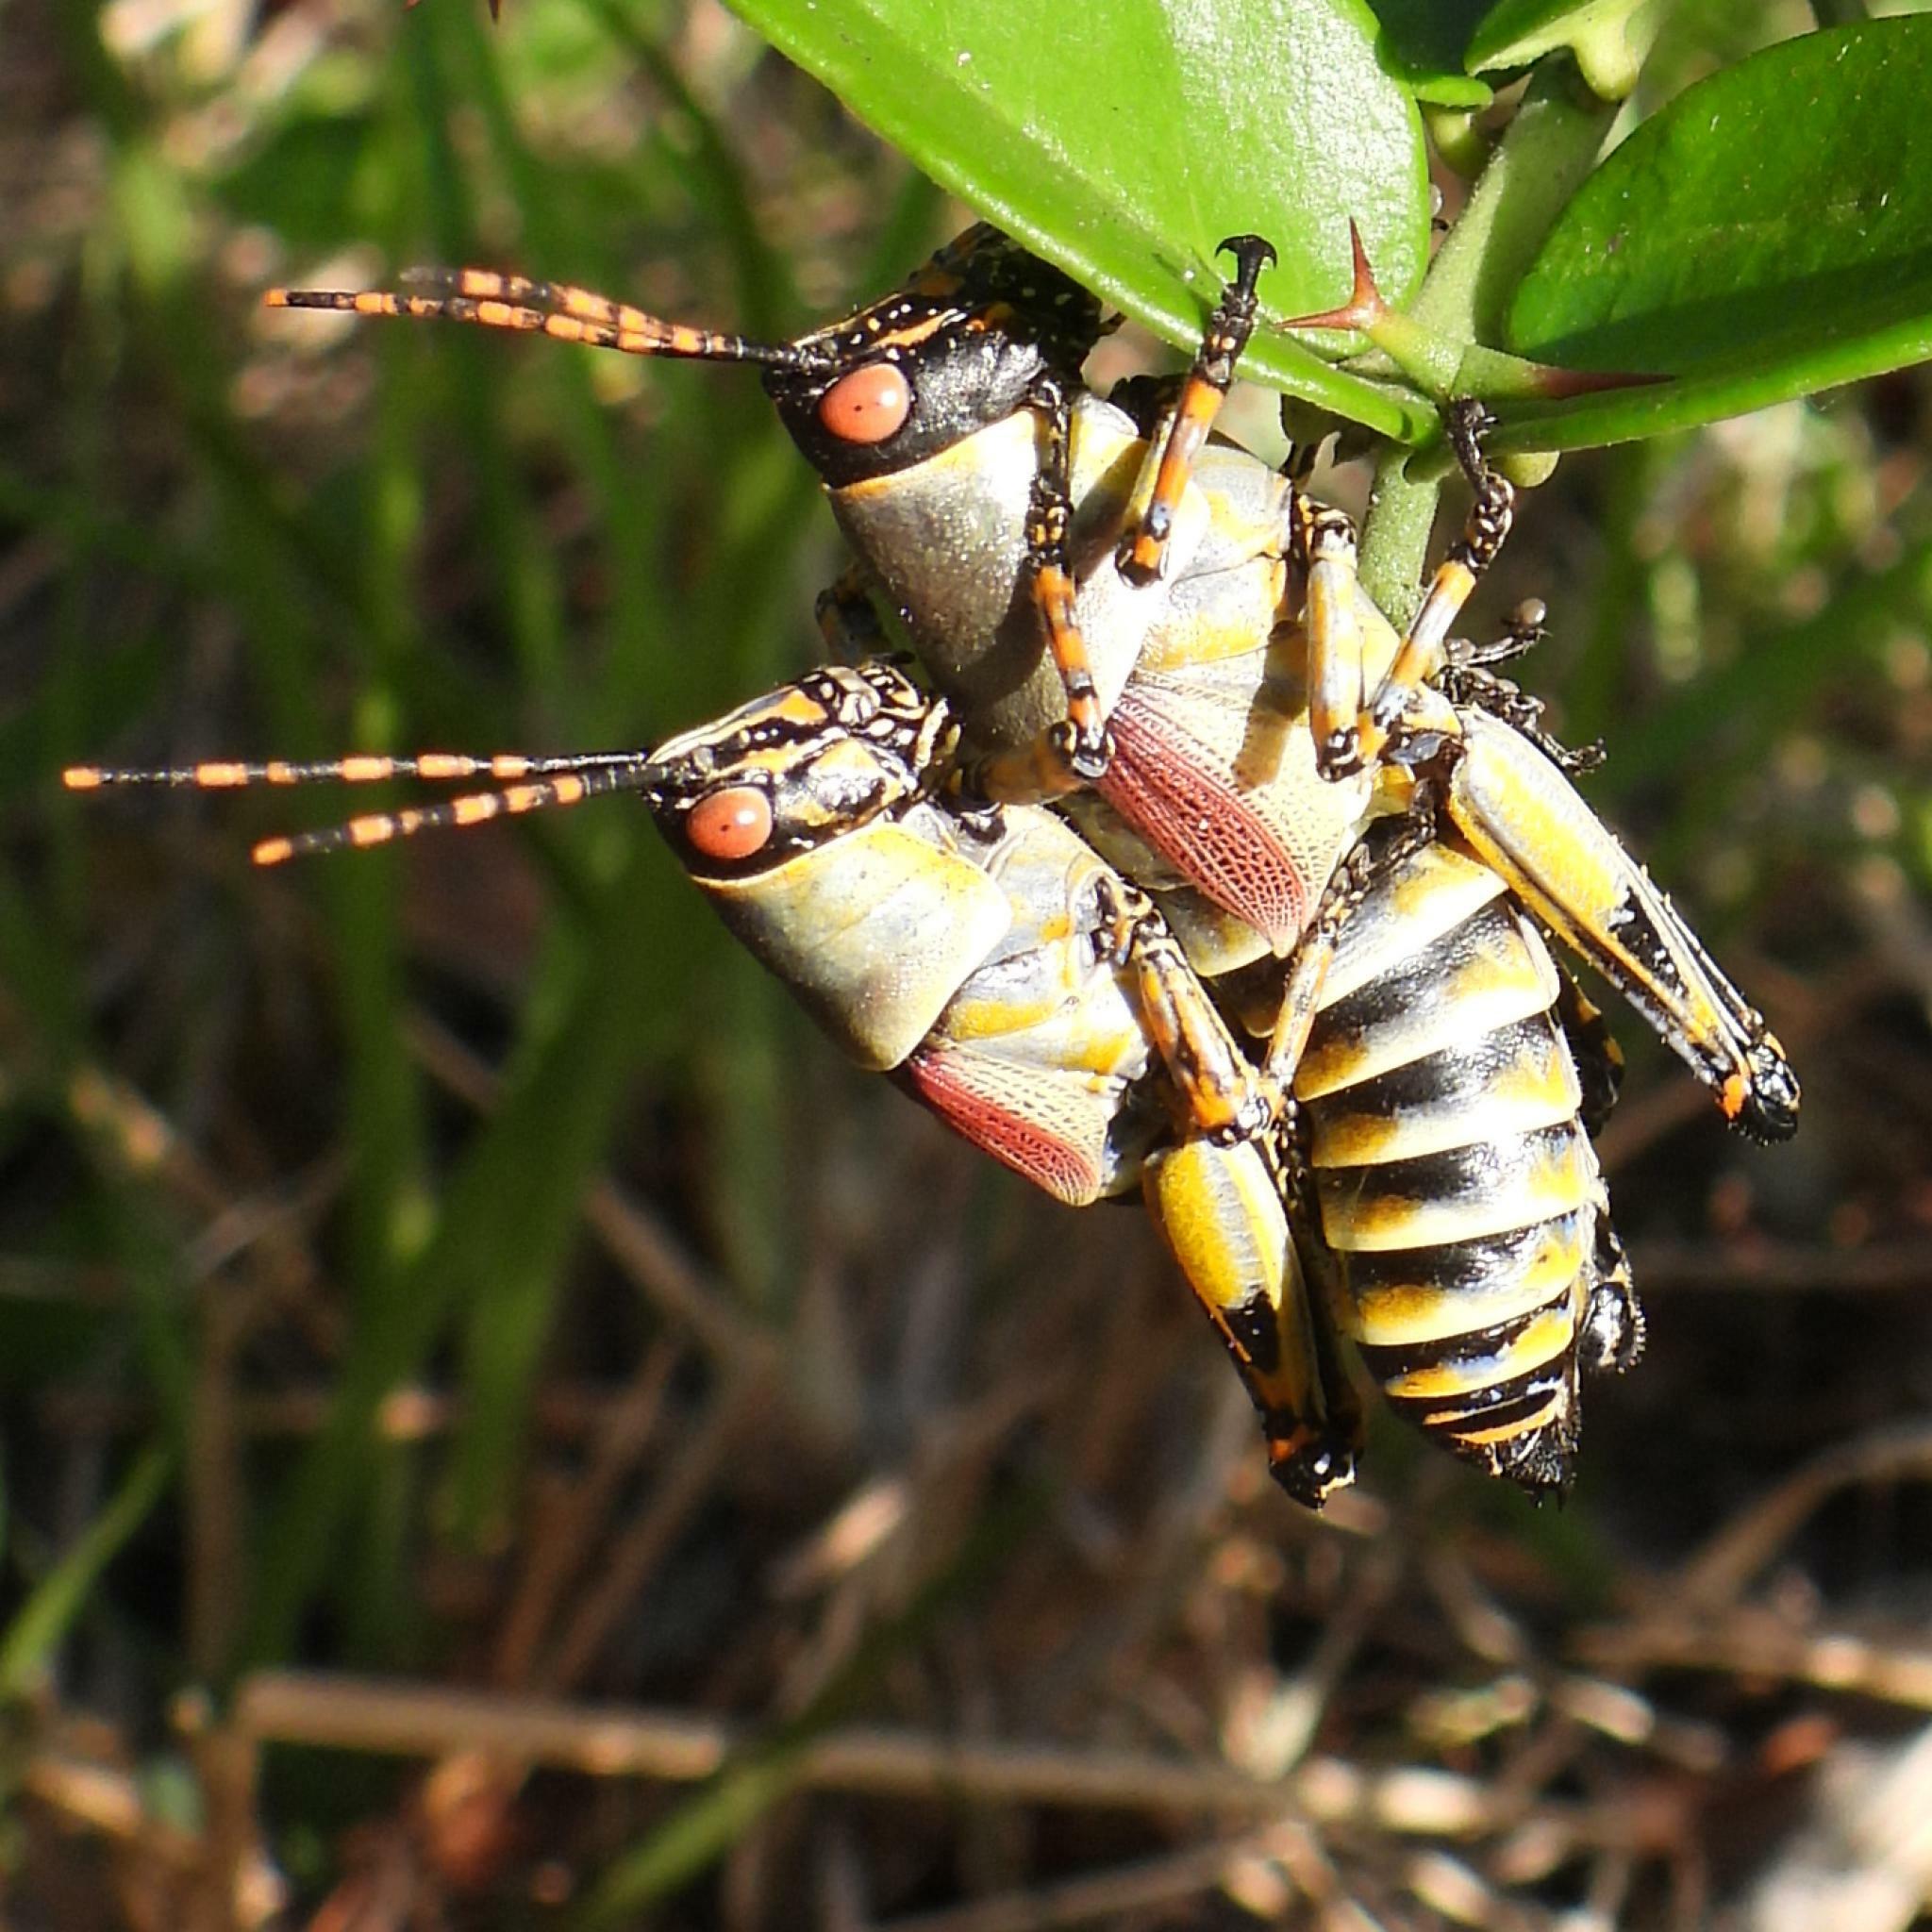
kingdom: Animalia
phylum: Arthropoda
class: Insecta
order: Orthoptera
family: Pyrgomorphidae
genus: Zonocerus
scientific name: Zonocerus elegans
